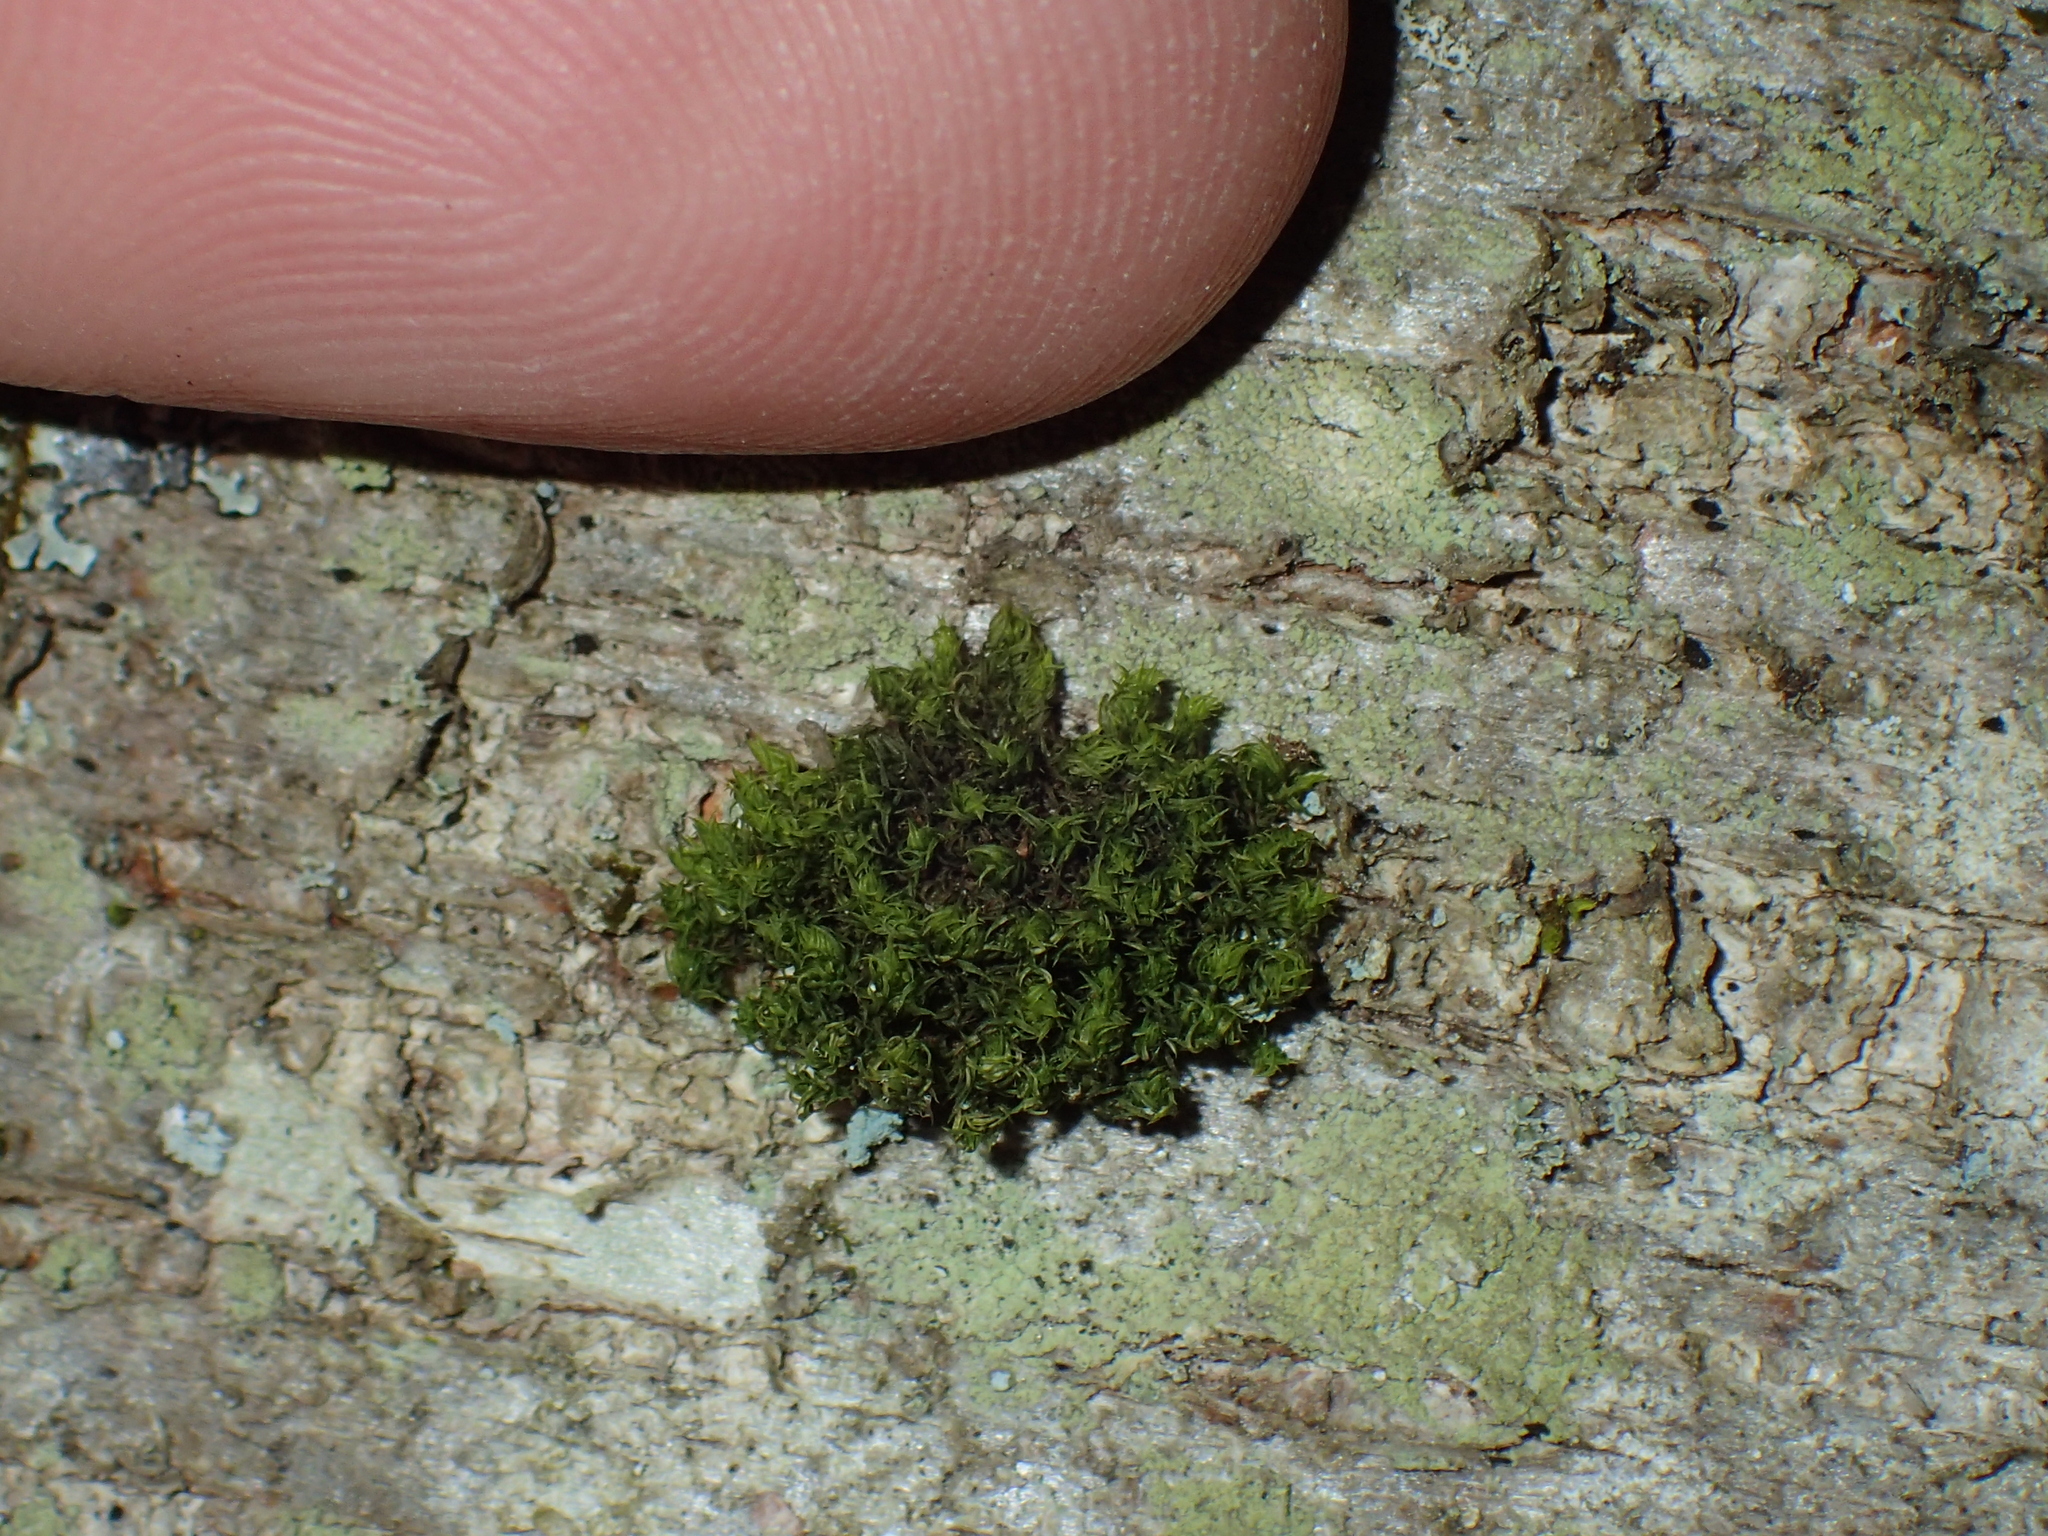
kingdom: Plantae
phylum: Bryophyta
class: Bryopsida
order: Orthotrichales
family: Orthotrichaceae
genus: Ulota
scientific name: Ulota crispa
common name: Crisped pincushion moss
